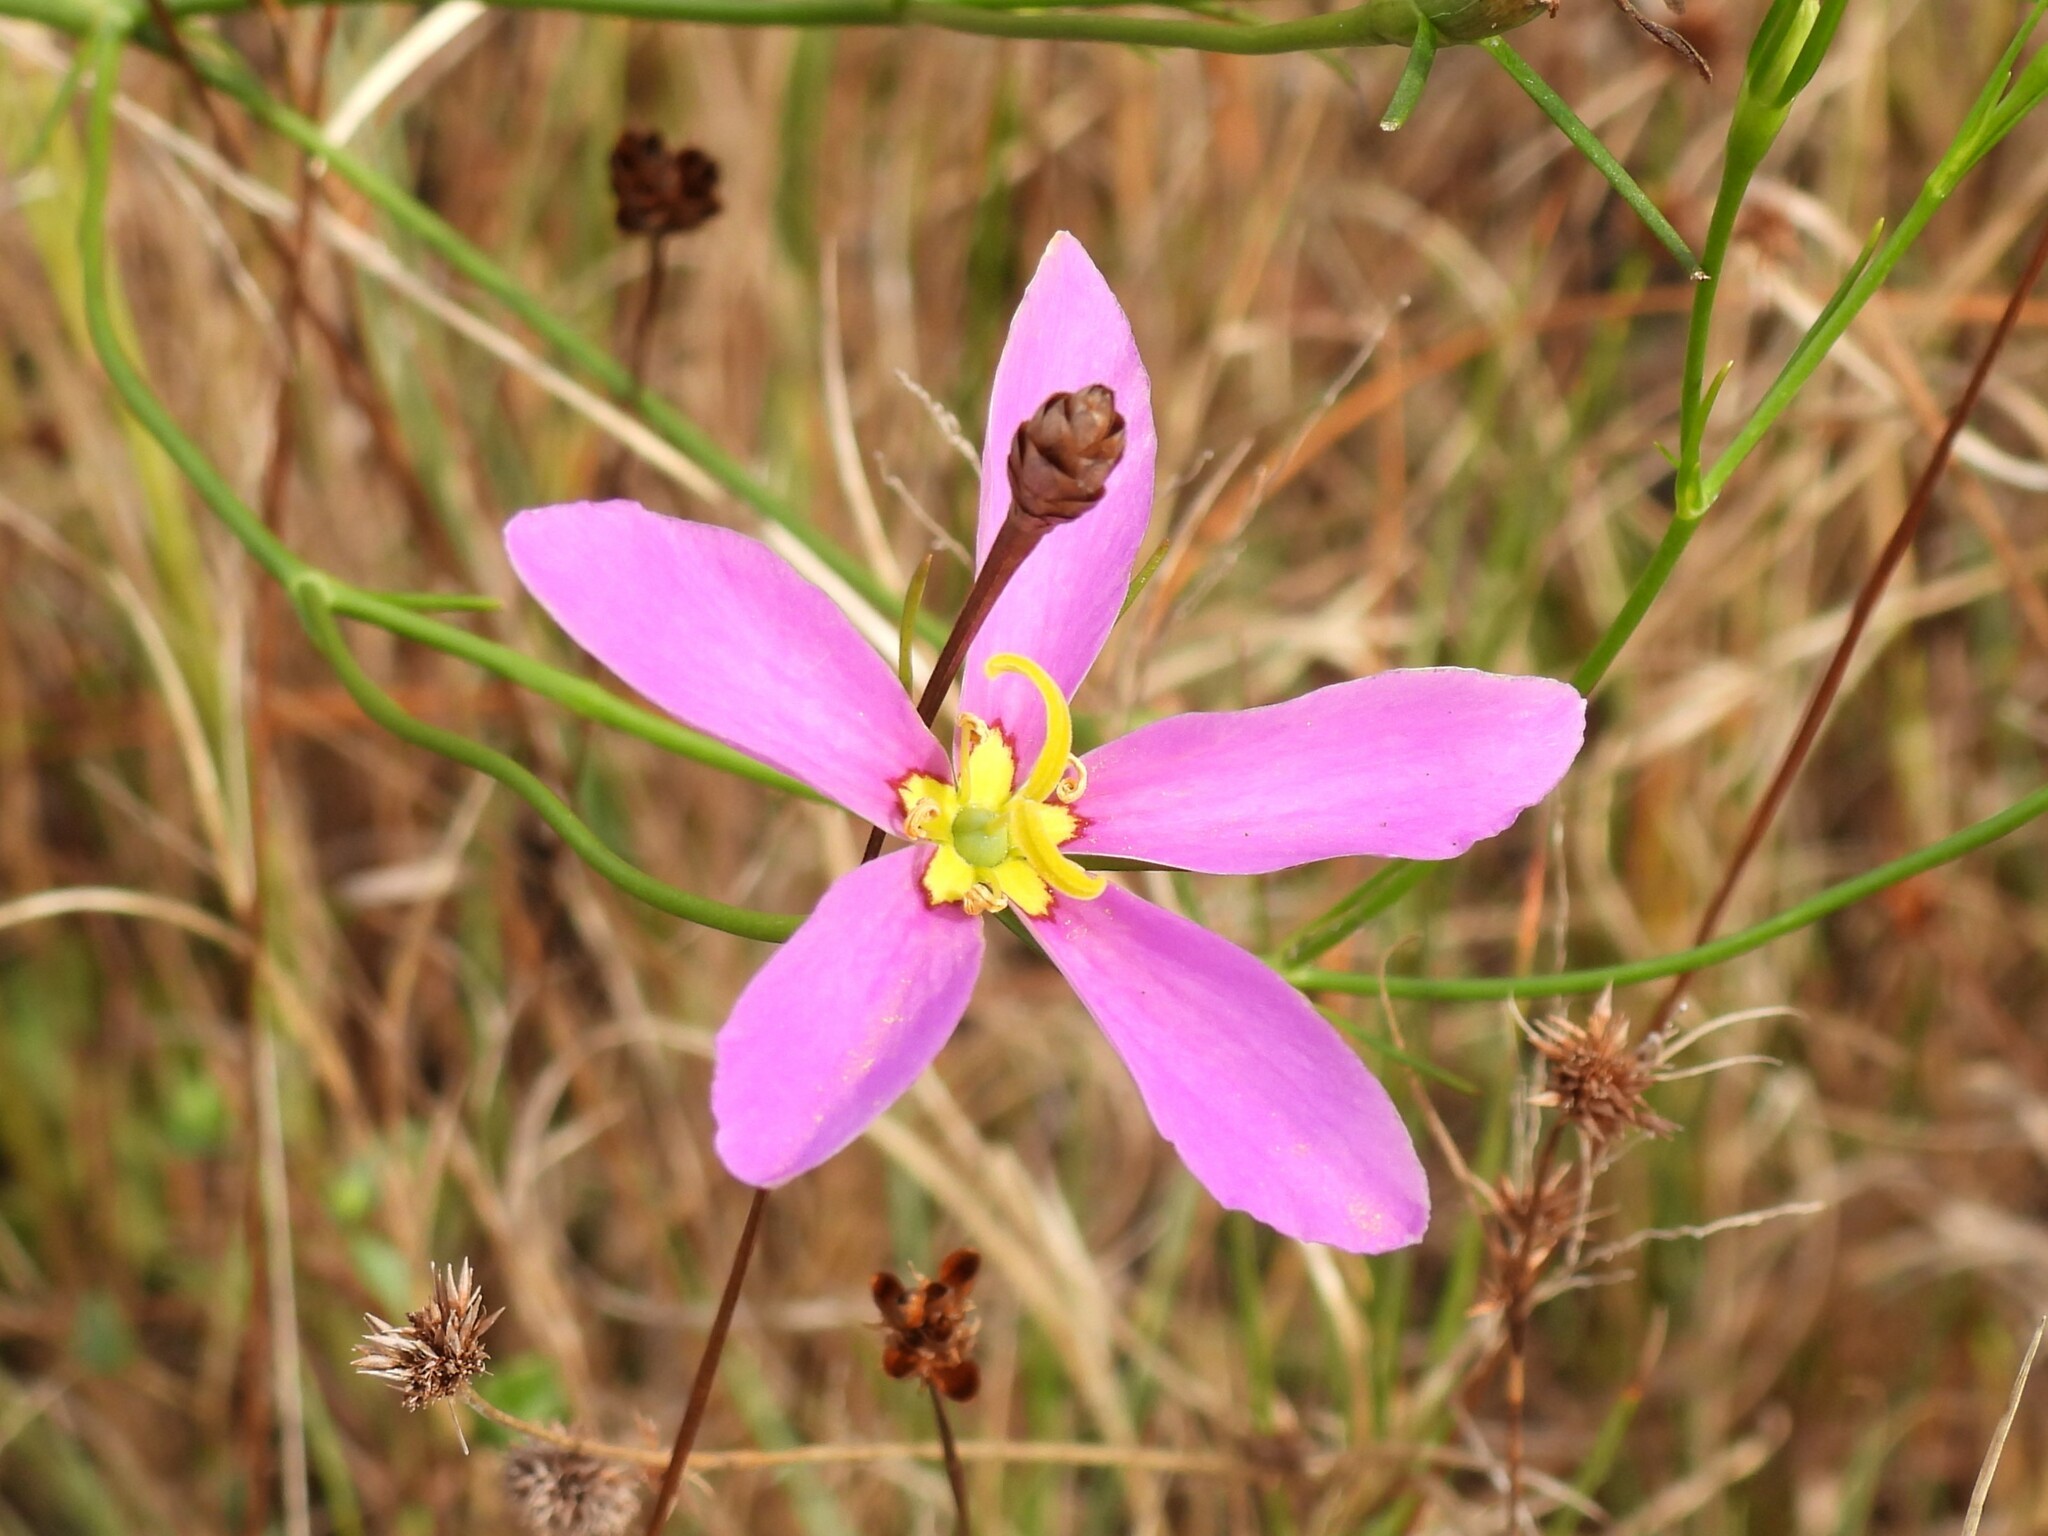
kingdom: Plantae
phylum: Tracheophyta
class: Magnoliopsida
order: Gentianales
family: Gentianaceae
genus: Sabatia
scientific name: Sabatia grandiflora
